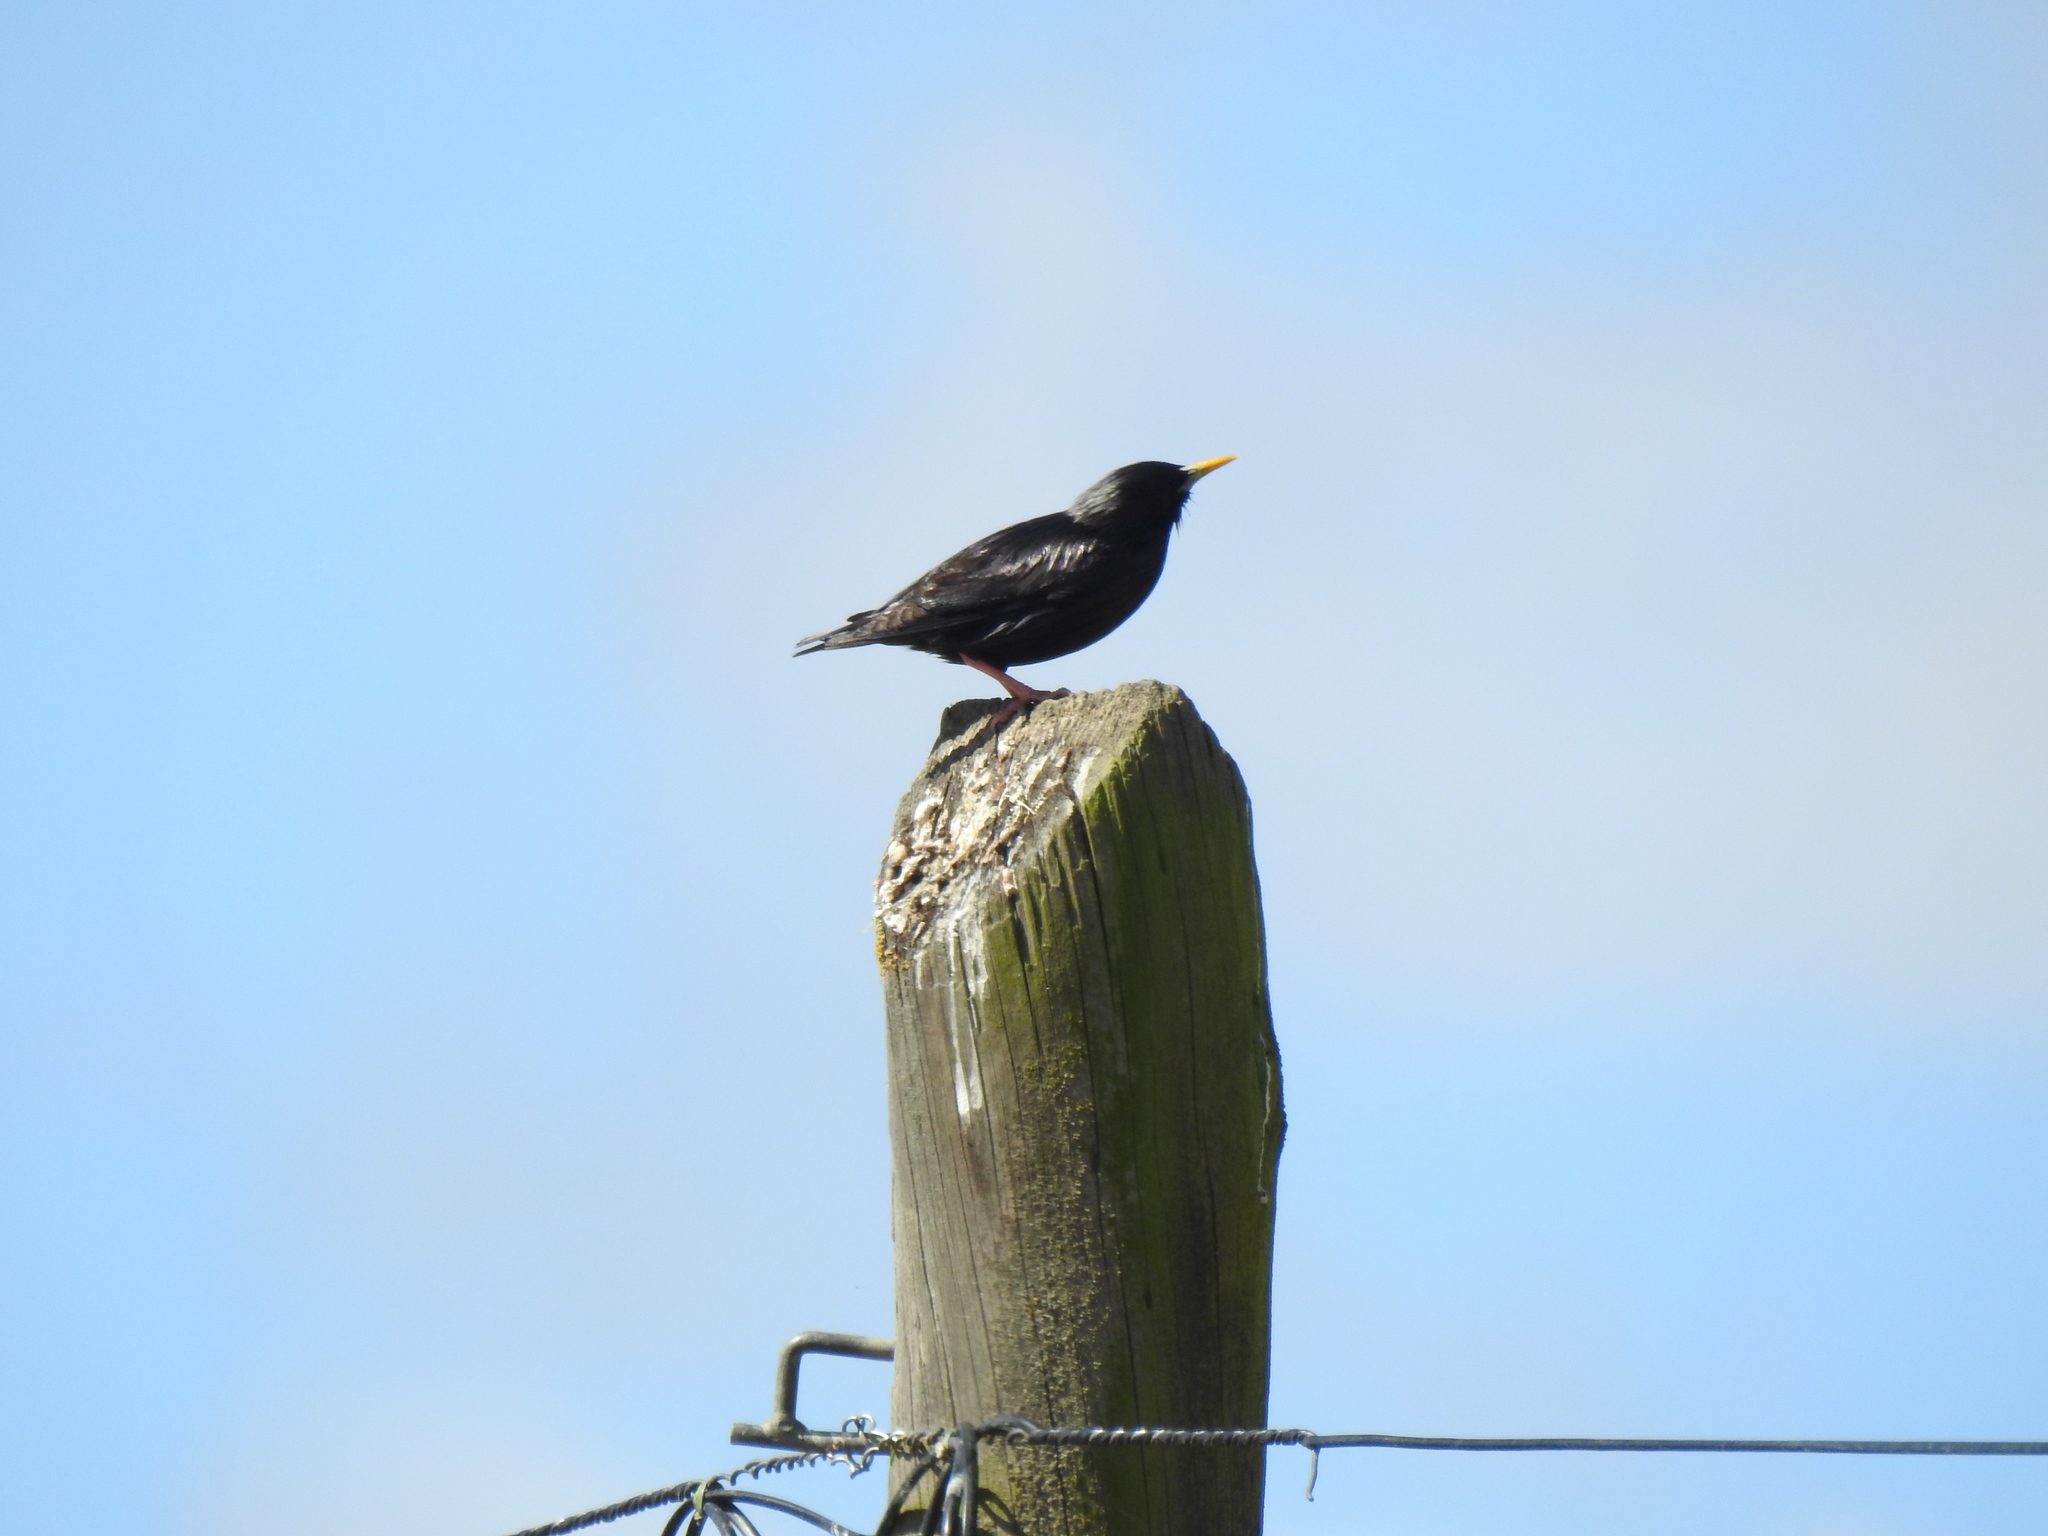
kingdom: Animalia
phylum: Chordata
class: Aves
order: Passeriformes
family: Sturnidae
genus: Sturnus
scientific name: Sturnus unicolor
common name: Spotless starling
